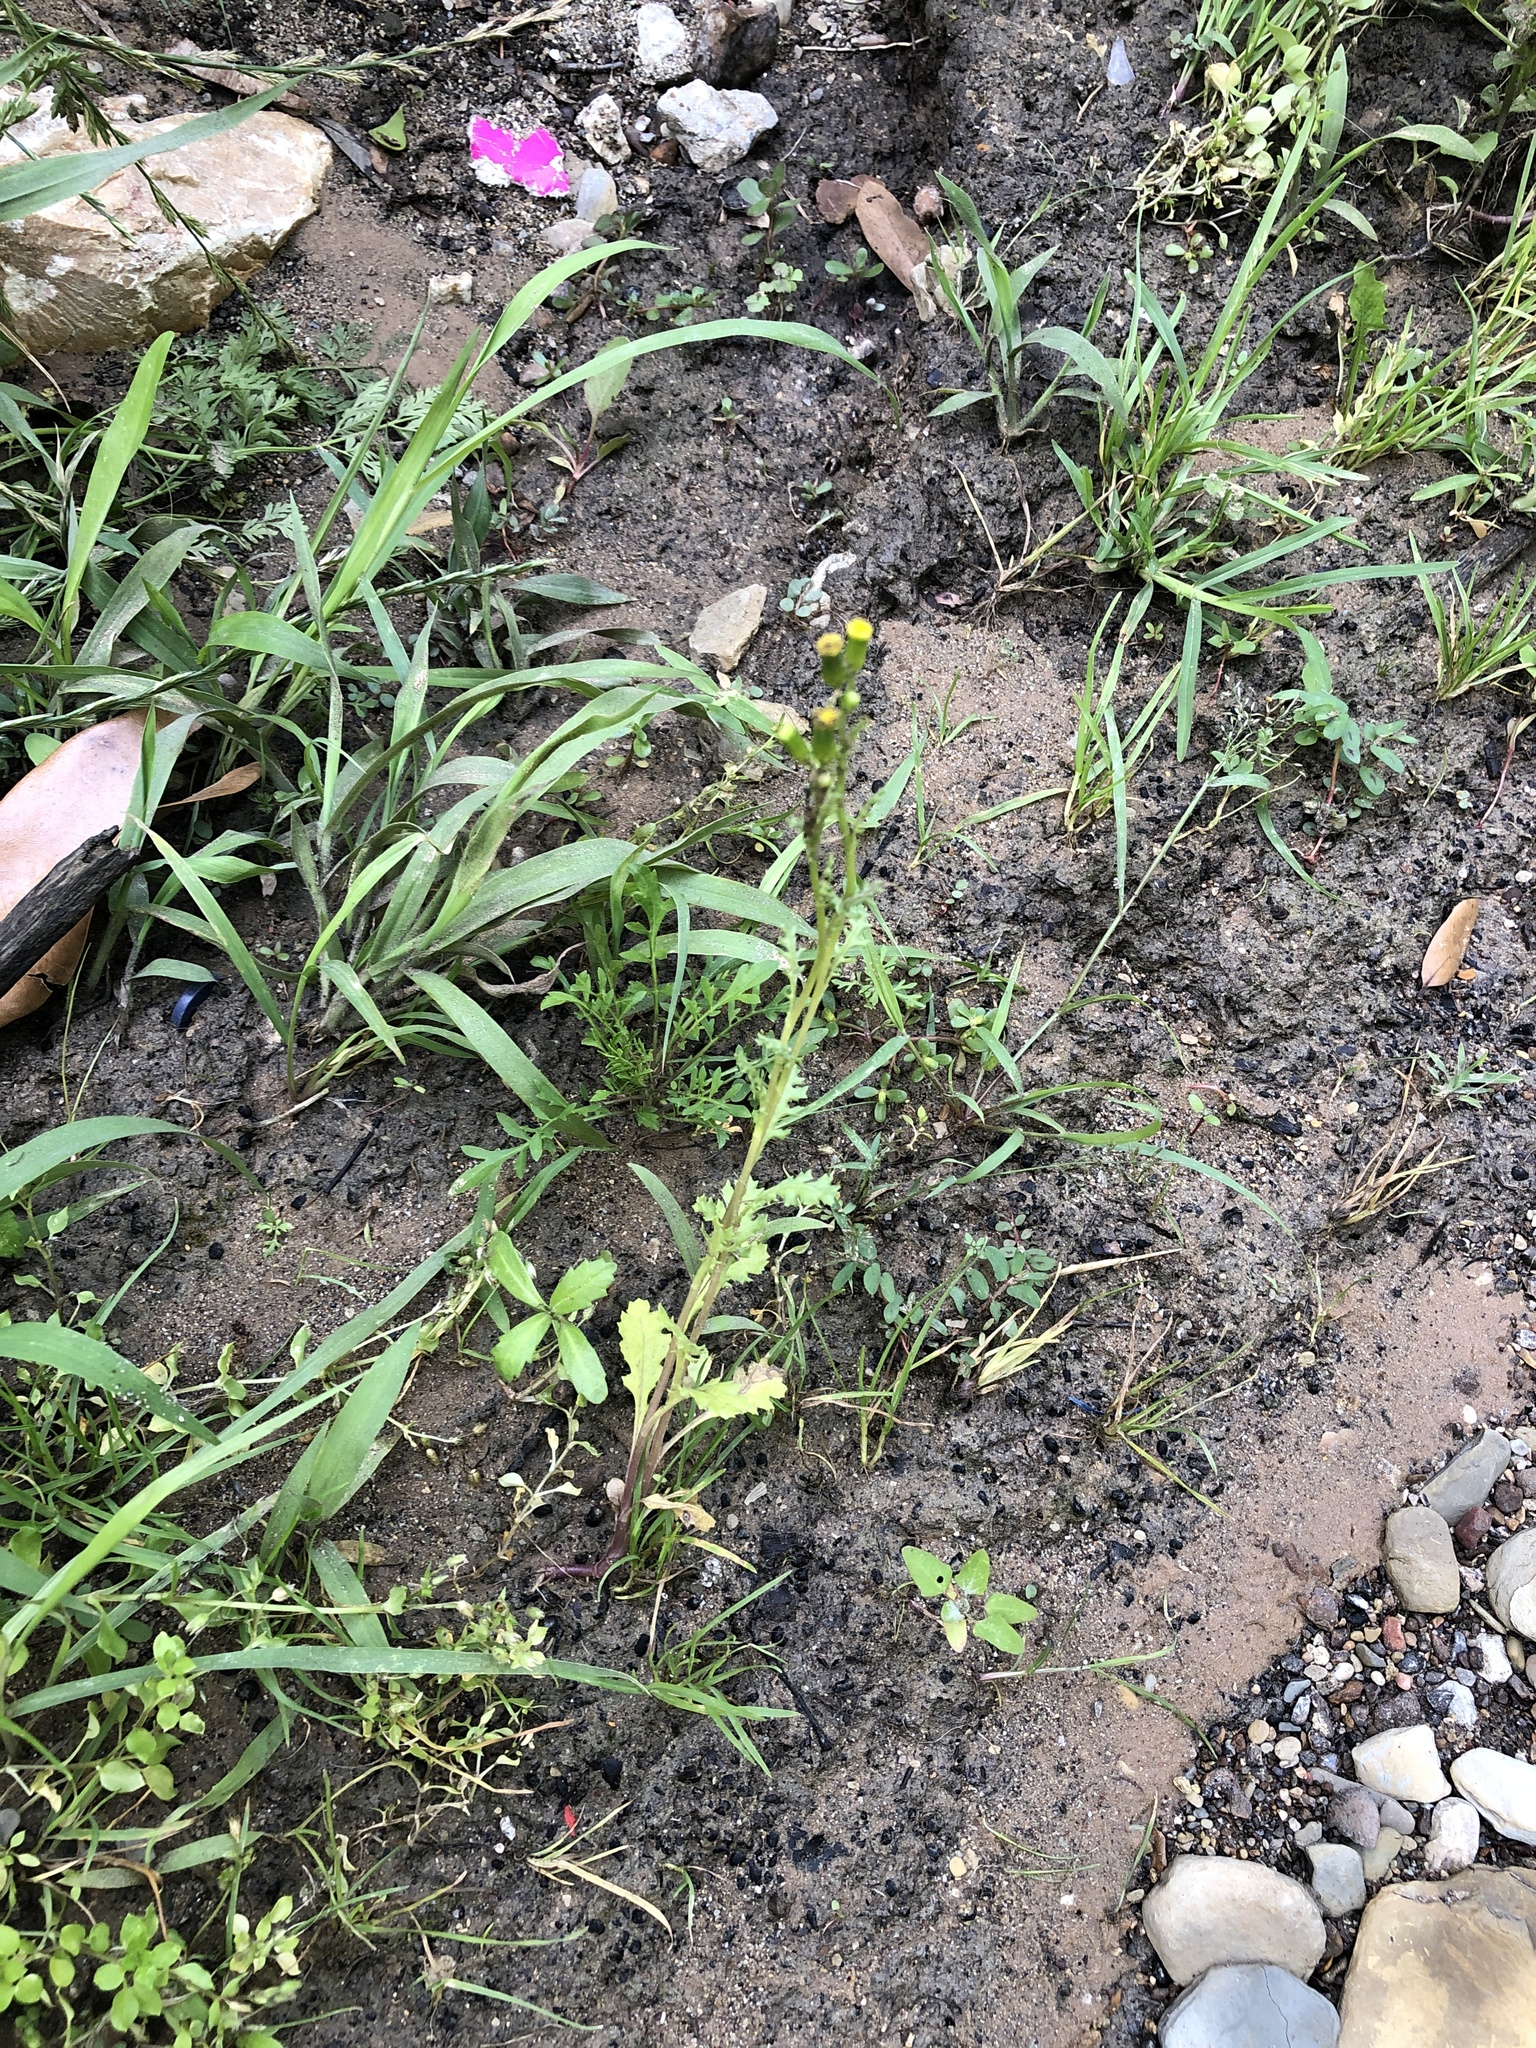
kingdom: Plantae
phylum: Tracheophyta
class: Magnoliopsida
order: Asterales
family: Asteraceae
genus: Senecio
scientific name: Senecio vulgaris
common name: Old-man-in-the-spring
